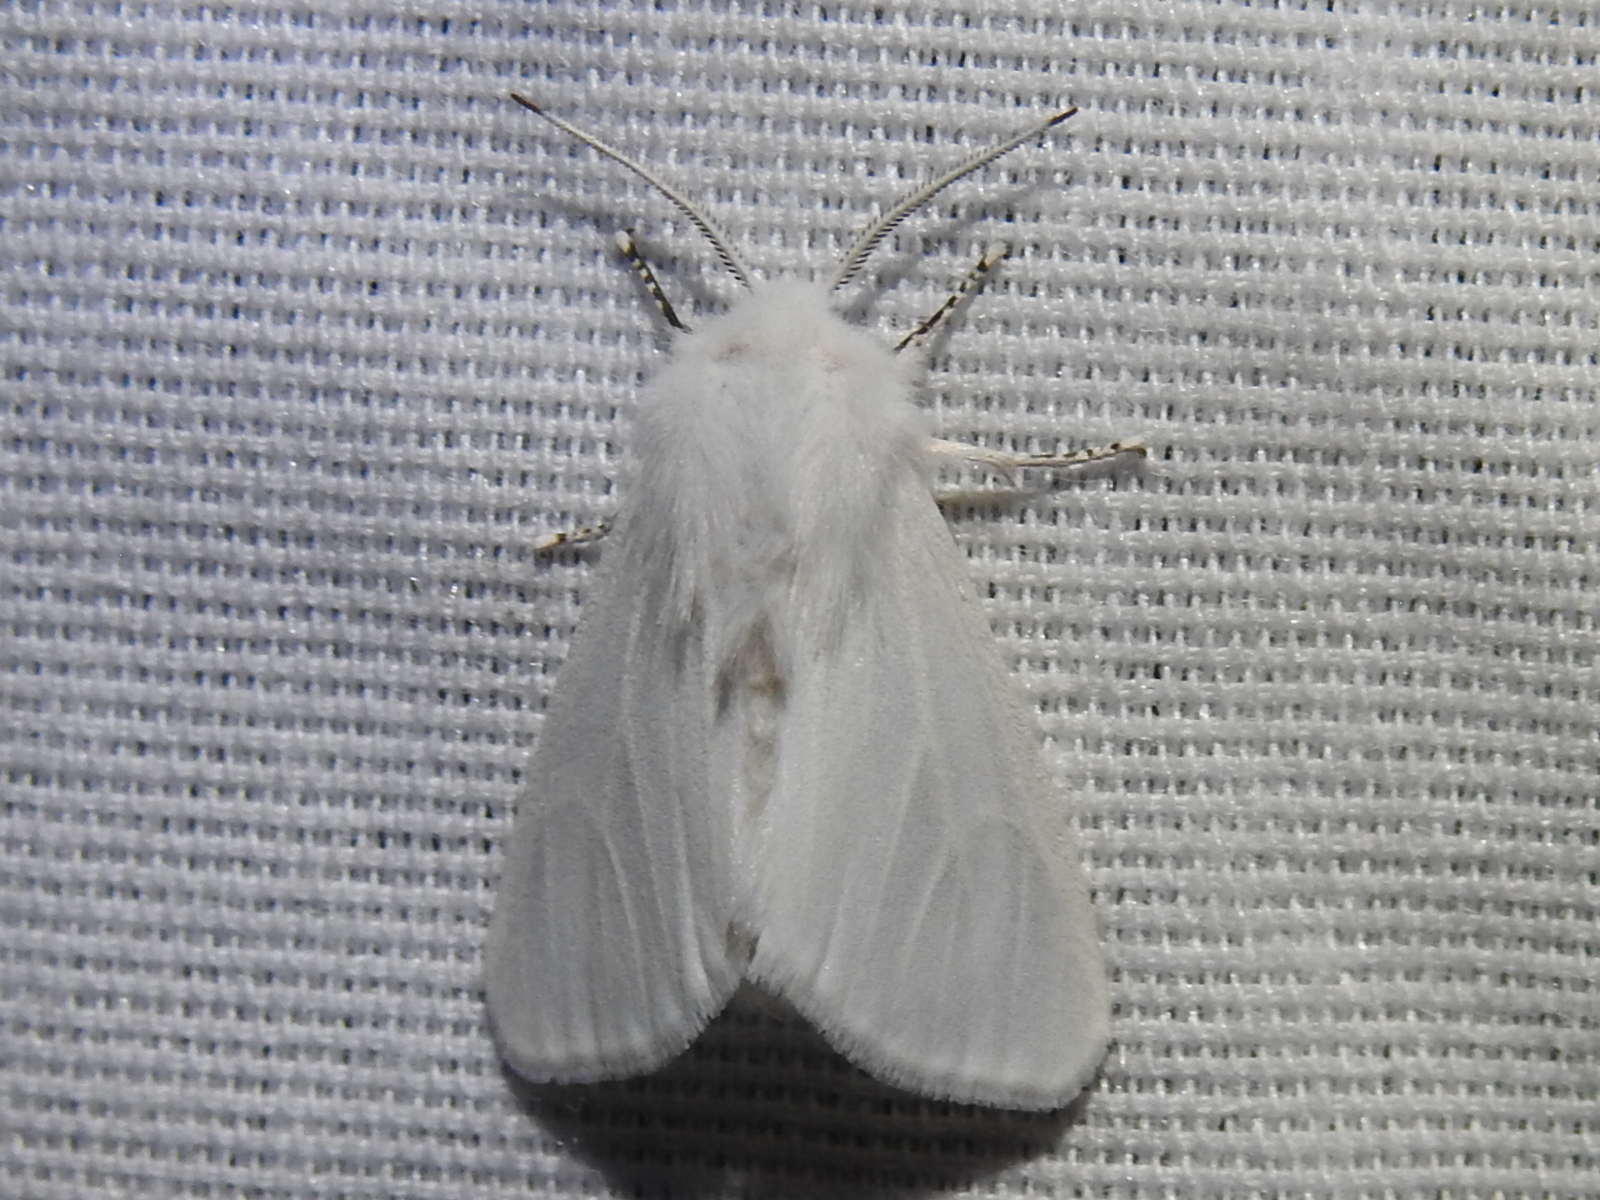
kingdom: Animalia
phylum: Arthropoda
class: Insecta
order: Lepidoptera
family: Erebidae
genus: Hyphantria
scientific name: Hyphantria cunea
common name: American white moth
